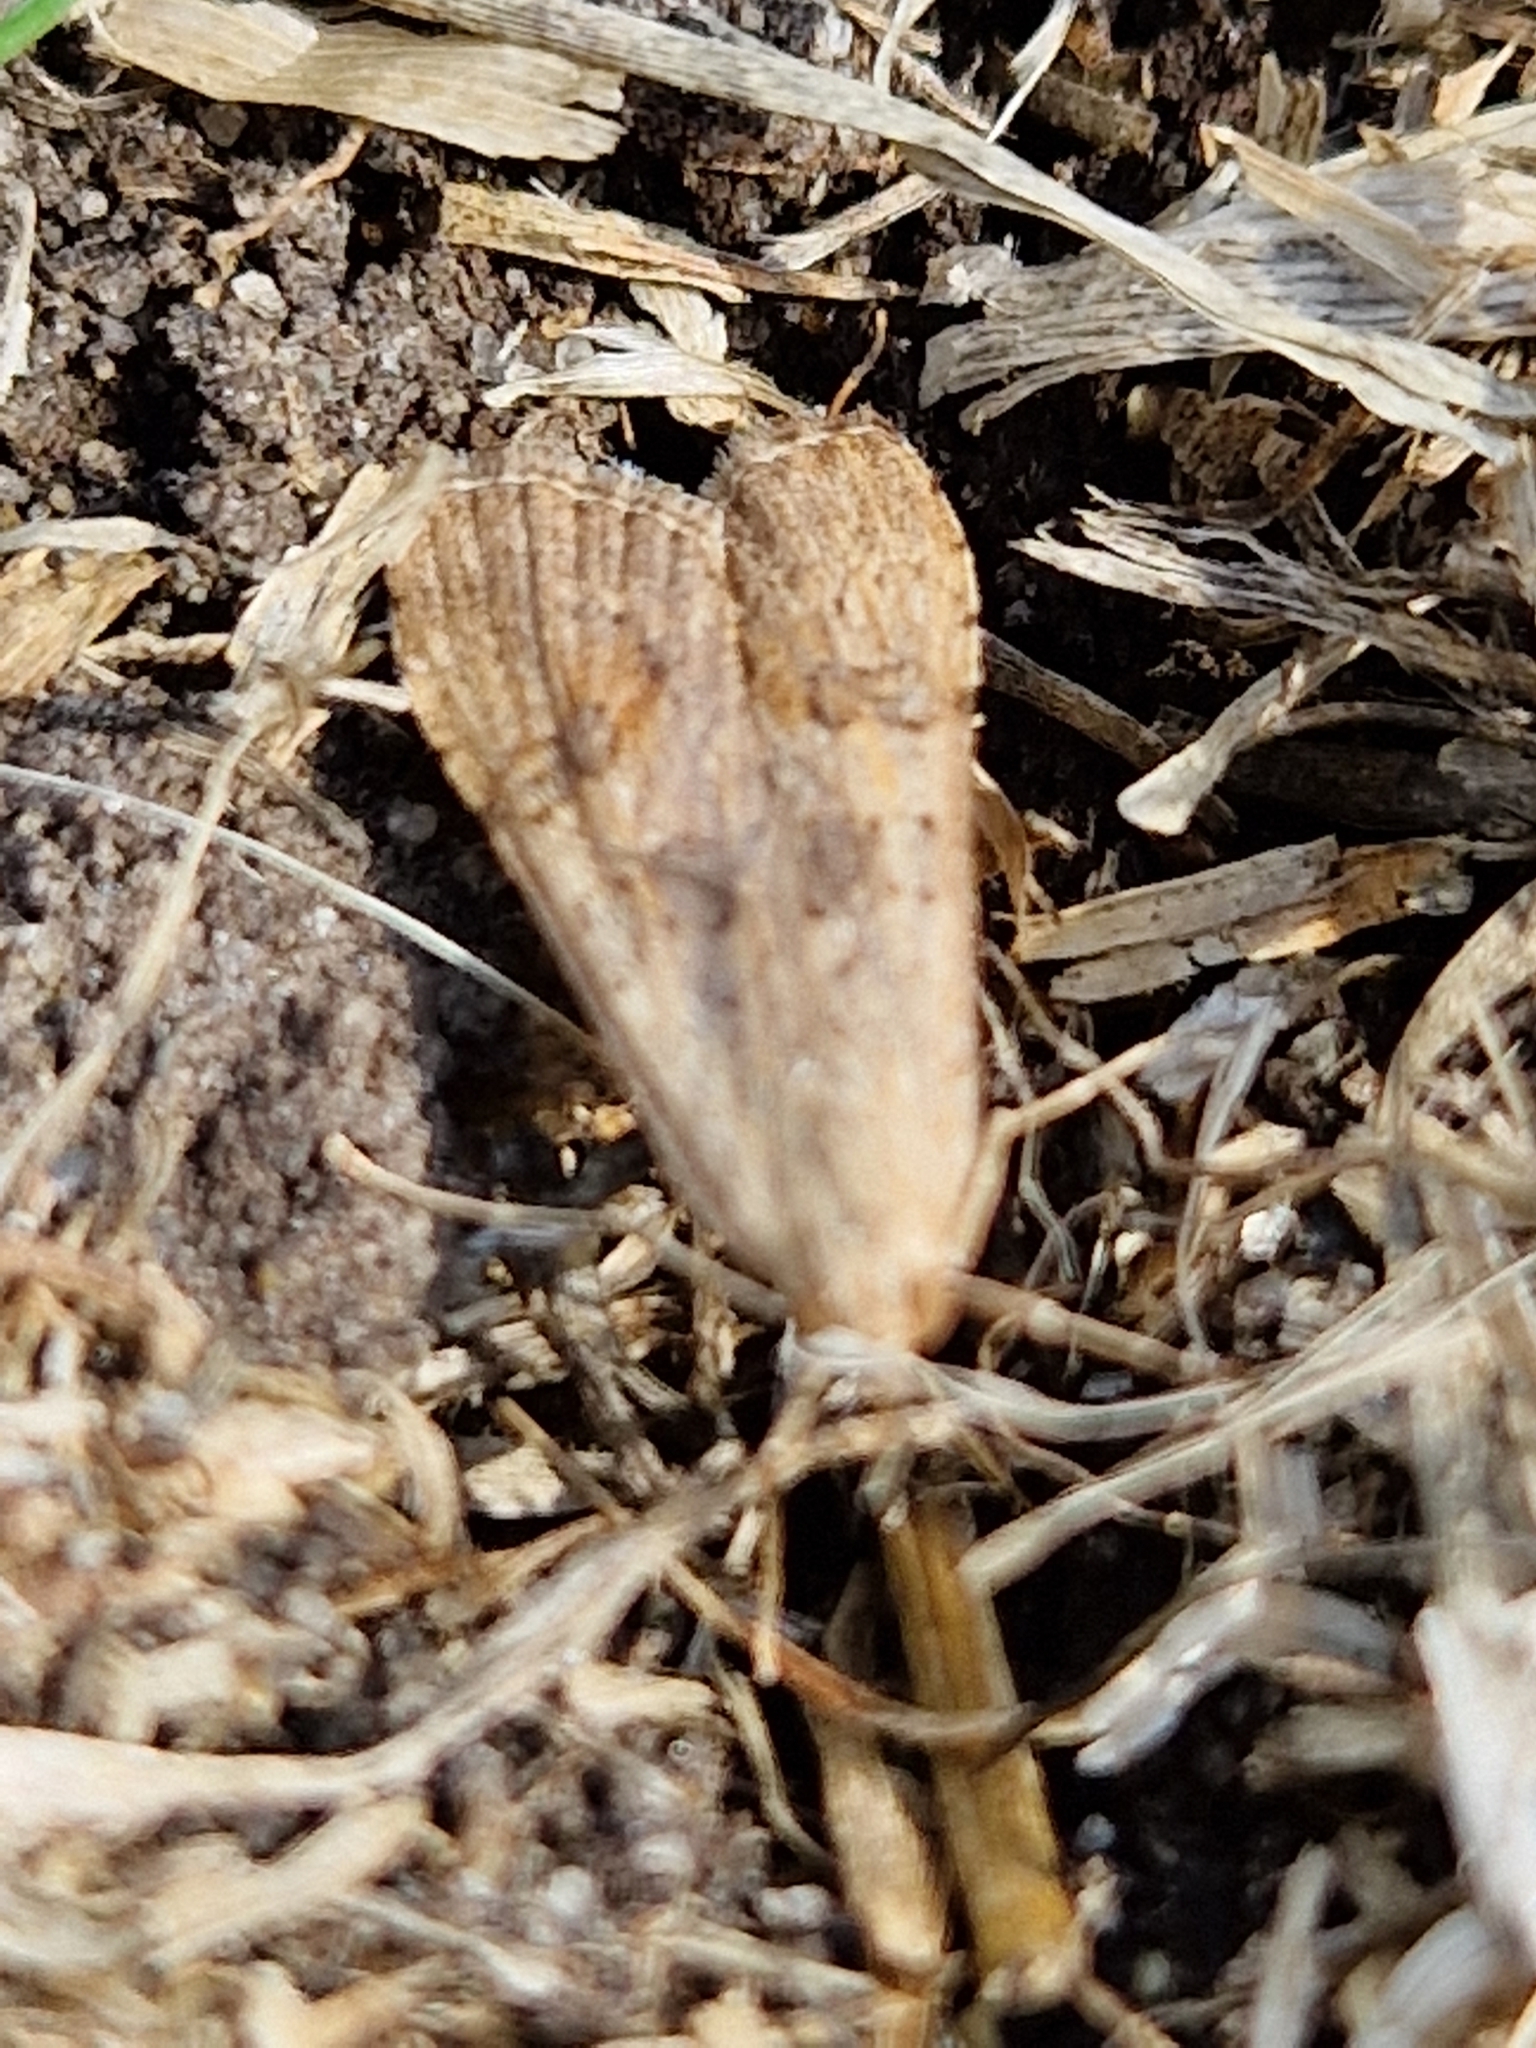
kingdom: Animalia
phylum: Arthropoda
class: Insecta
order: Lepidoptera
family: Crambidae
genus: Nomophila
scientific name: Nomophila noctuella
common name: Rush veneer
